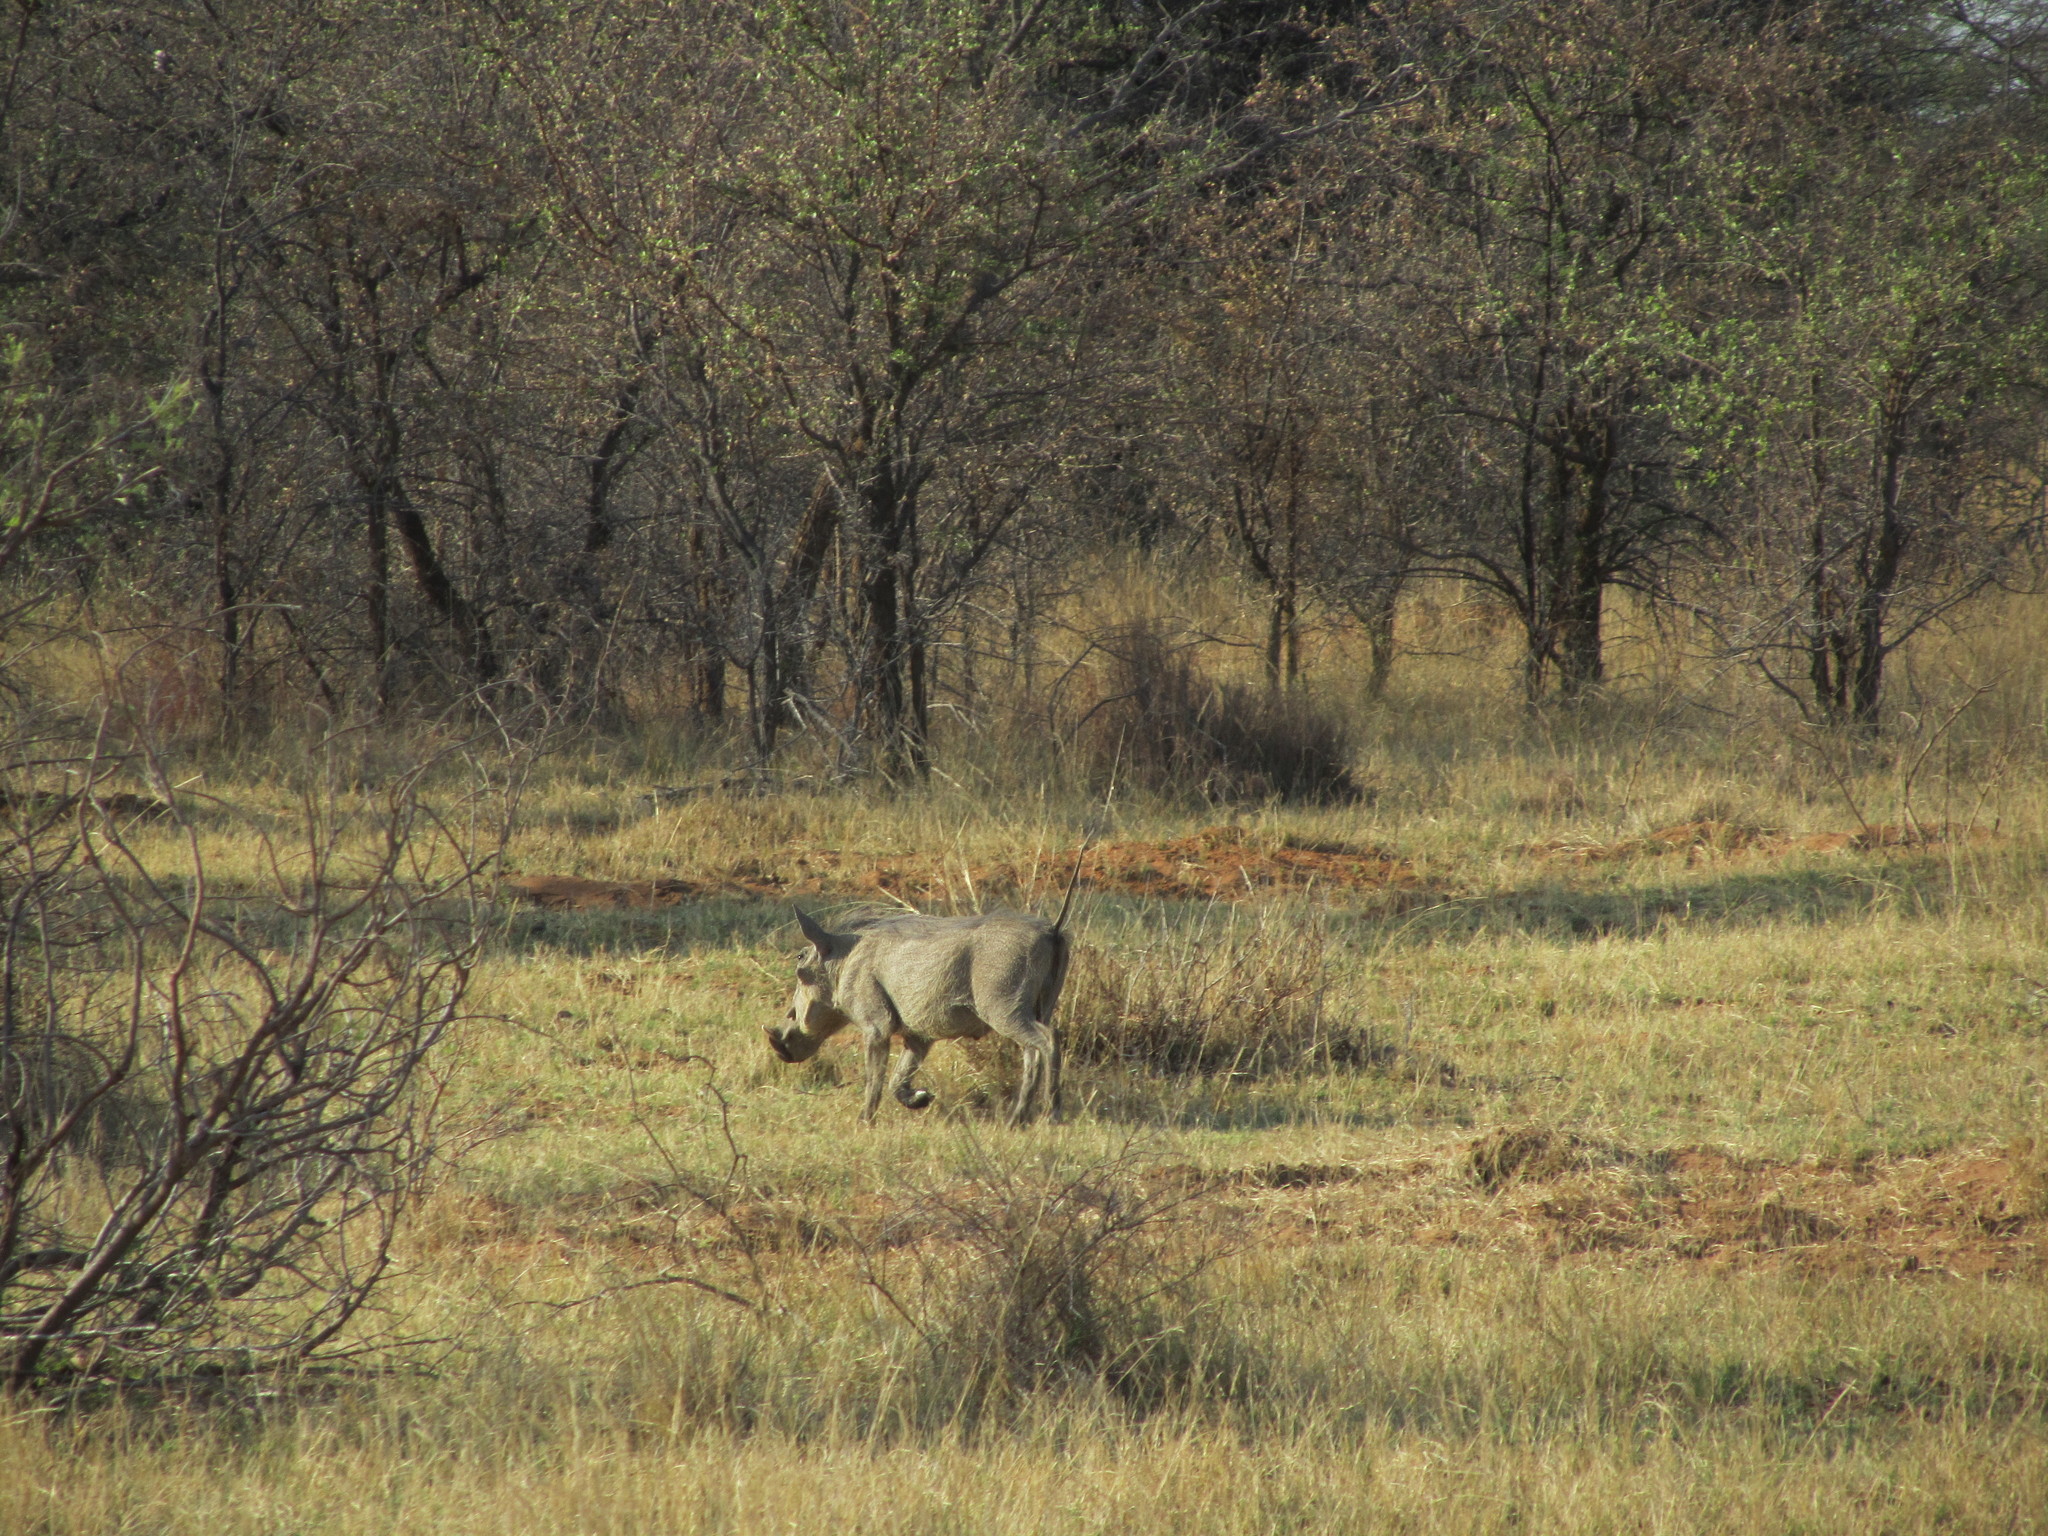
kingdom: Animalia
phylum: Chordata
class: Mammalia
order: Artiodactyla
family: Suidae
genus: Phacochoerus
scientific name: Phacochoerus africanus
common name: Common warthog
